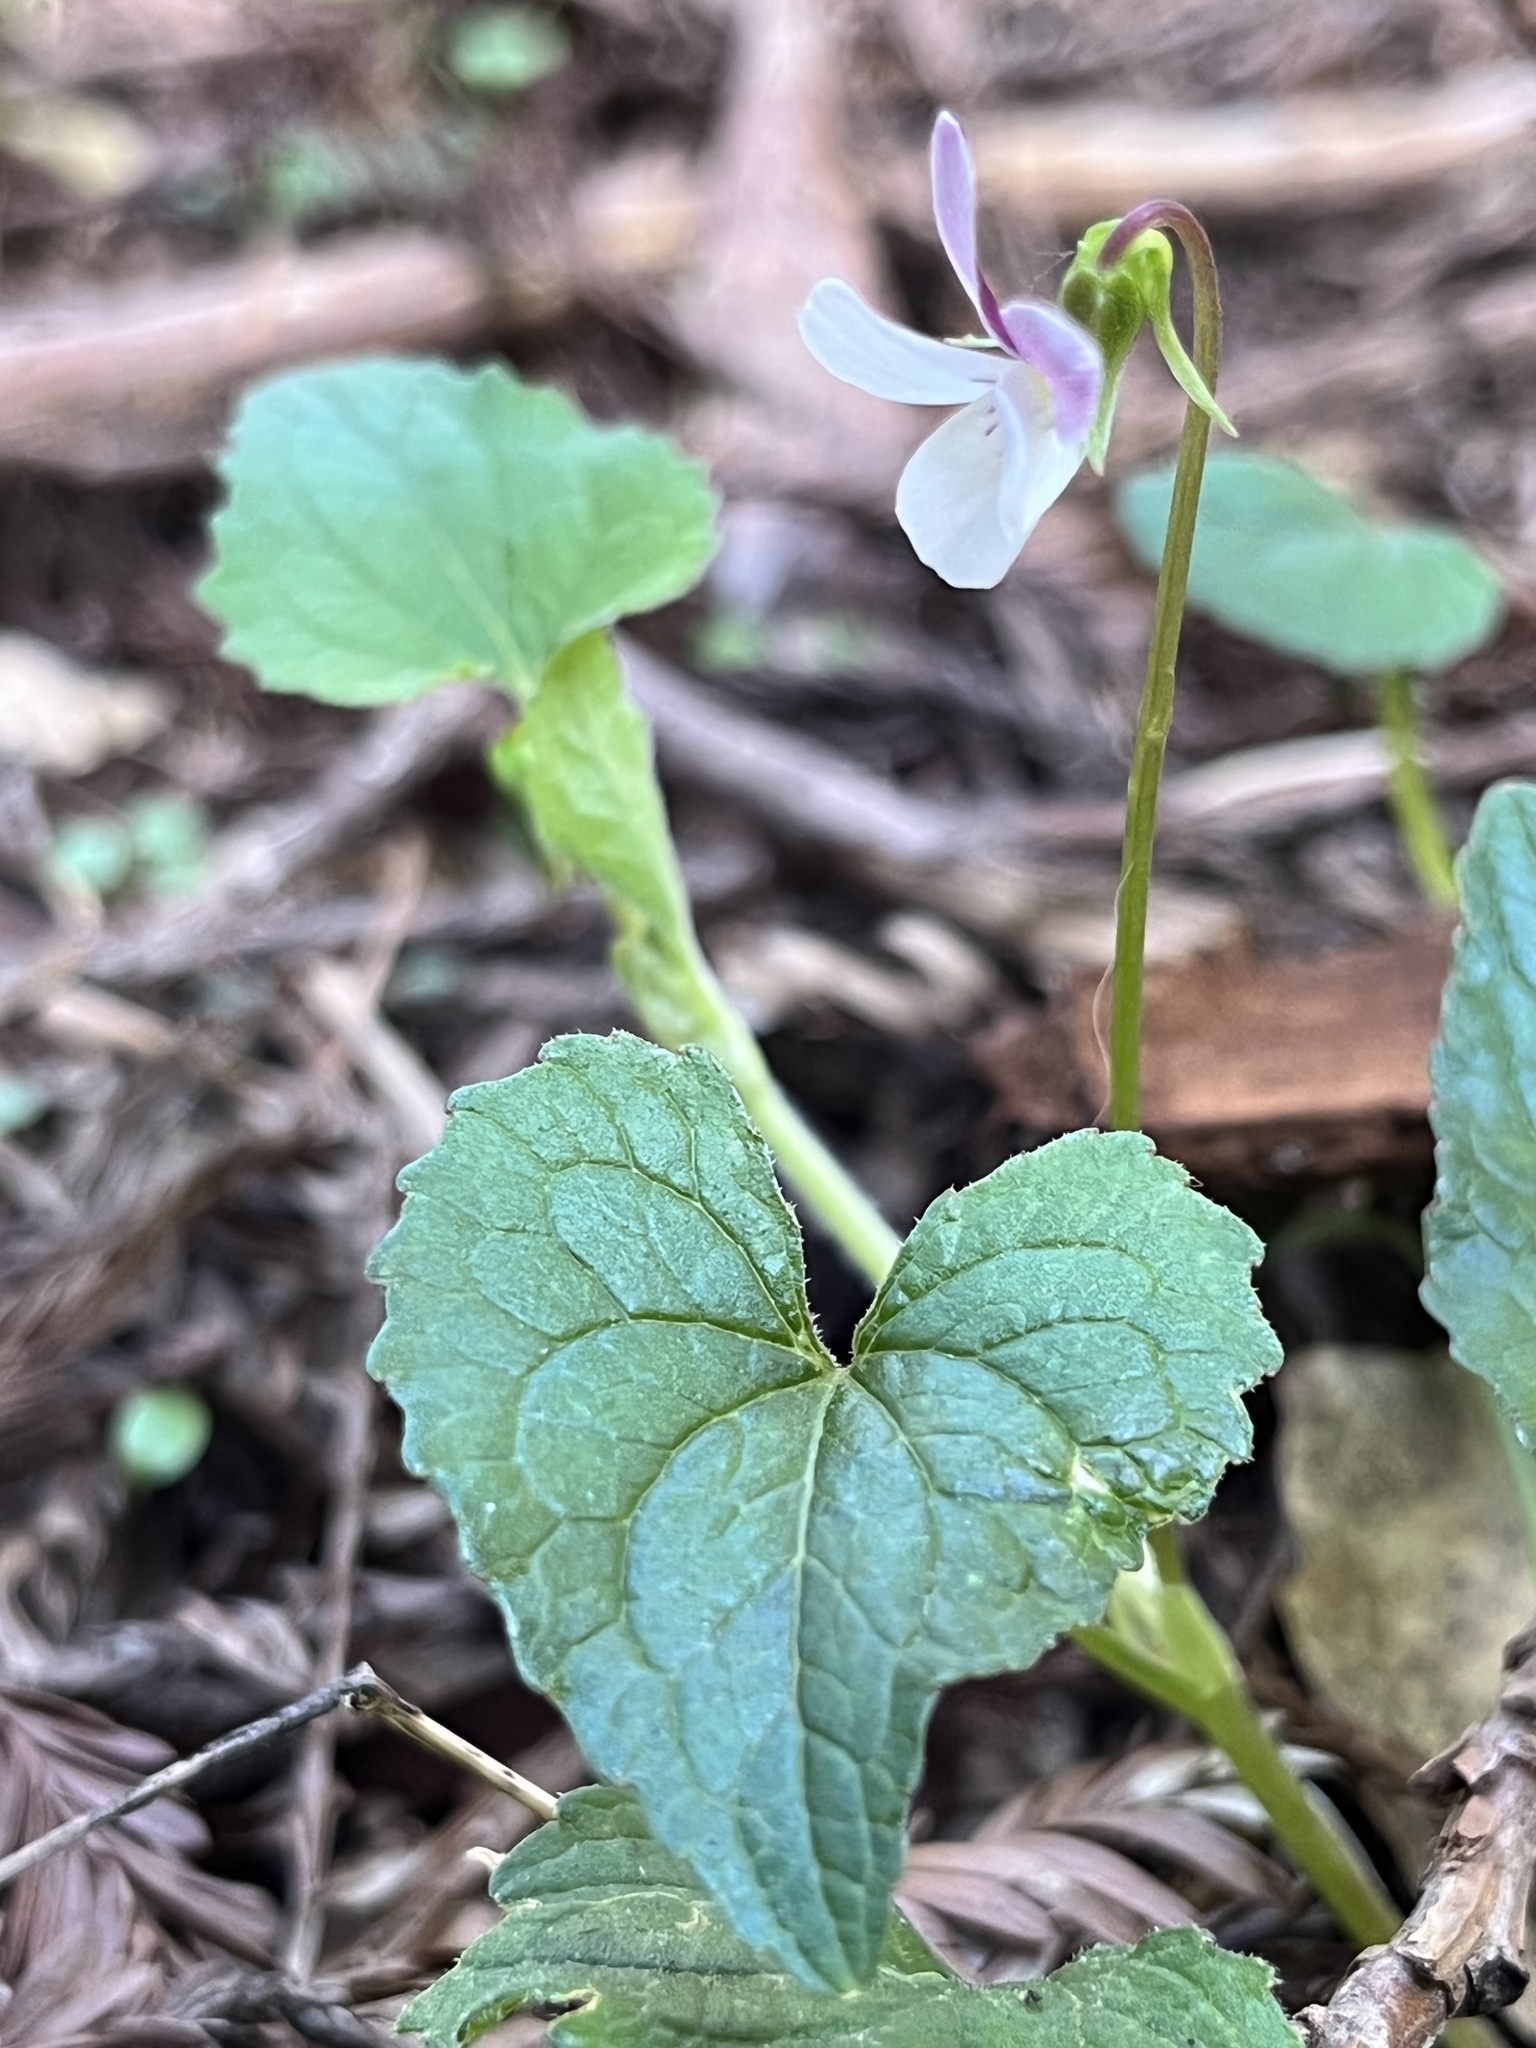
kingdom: Plantae
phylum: Tracheophyta
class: Magnoliopsida
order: Malpighiales
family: Violaceae
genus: Viola
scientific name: Viola ocellata
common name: Western heart's ease
